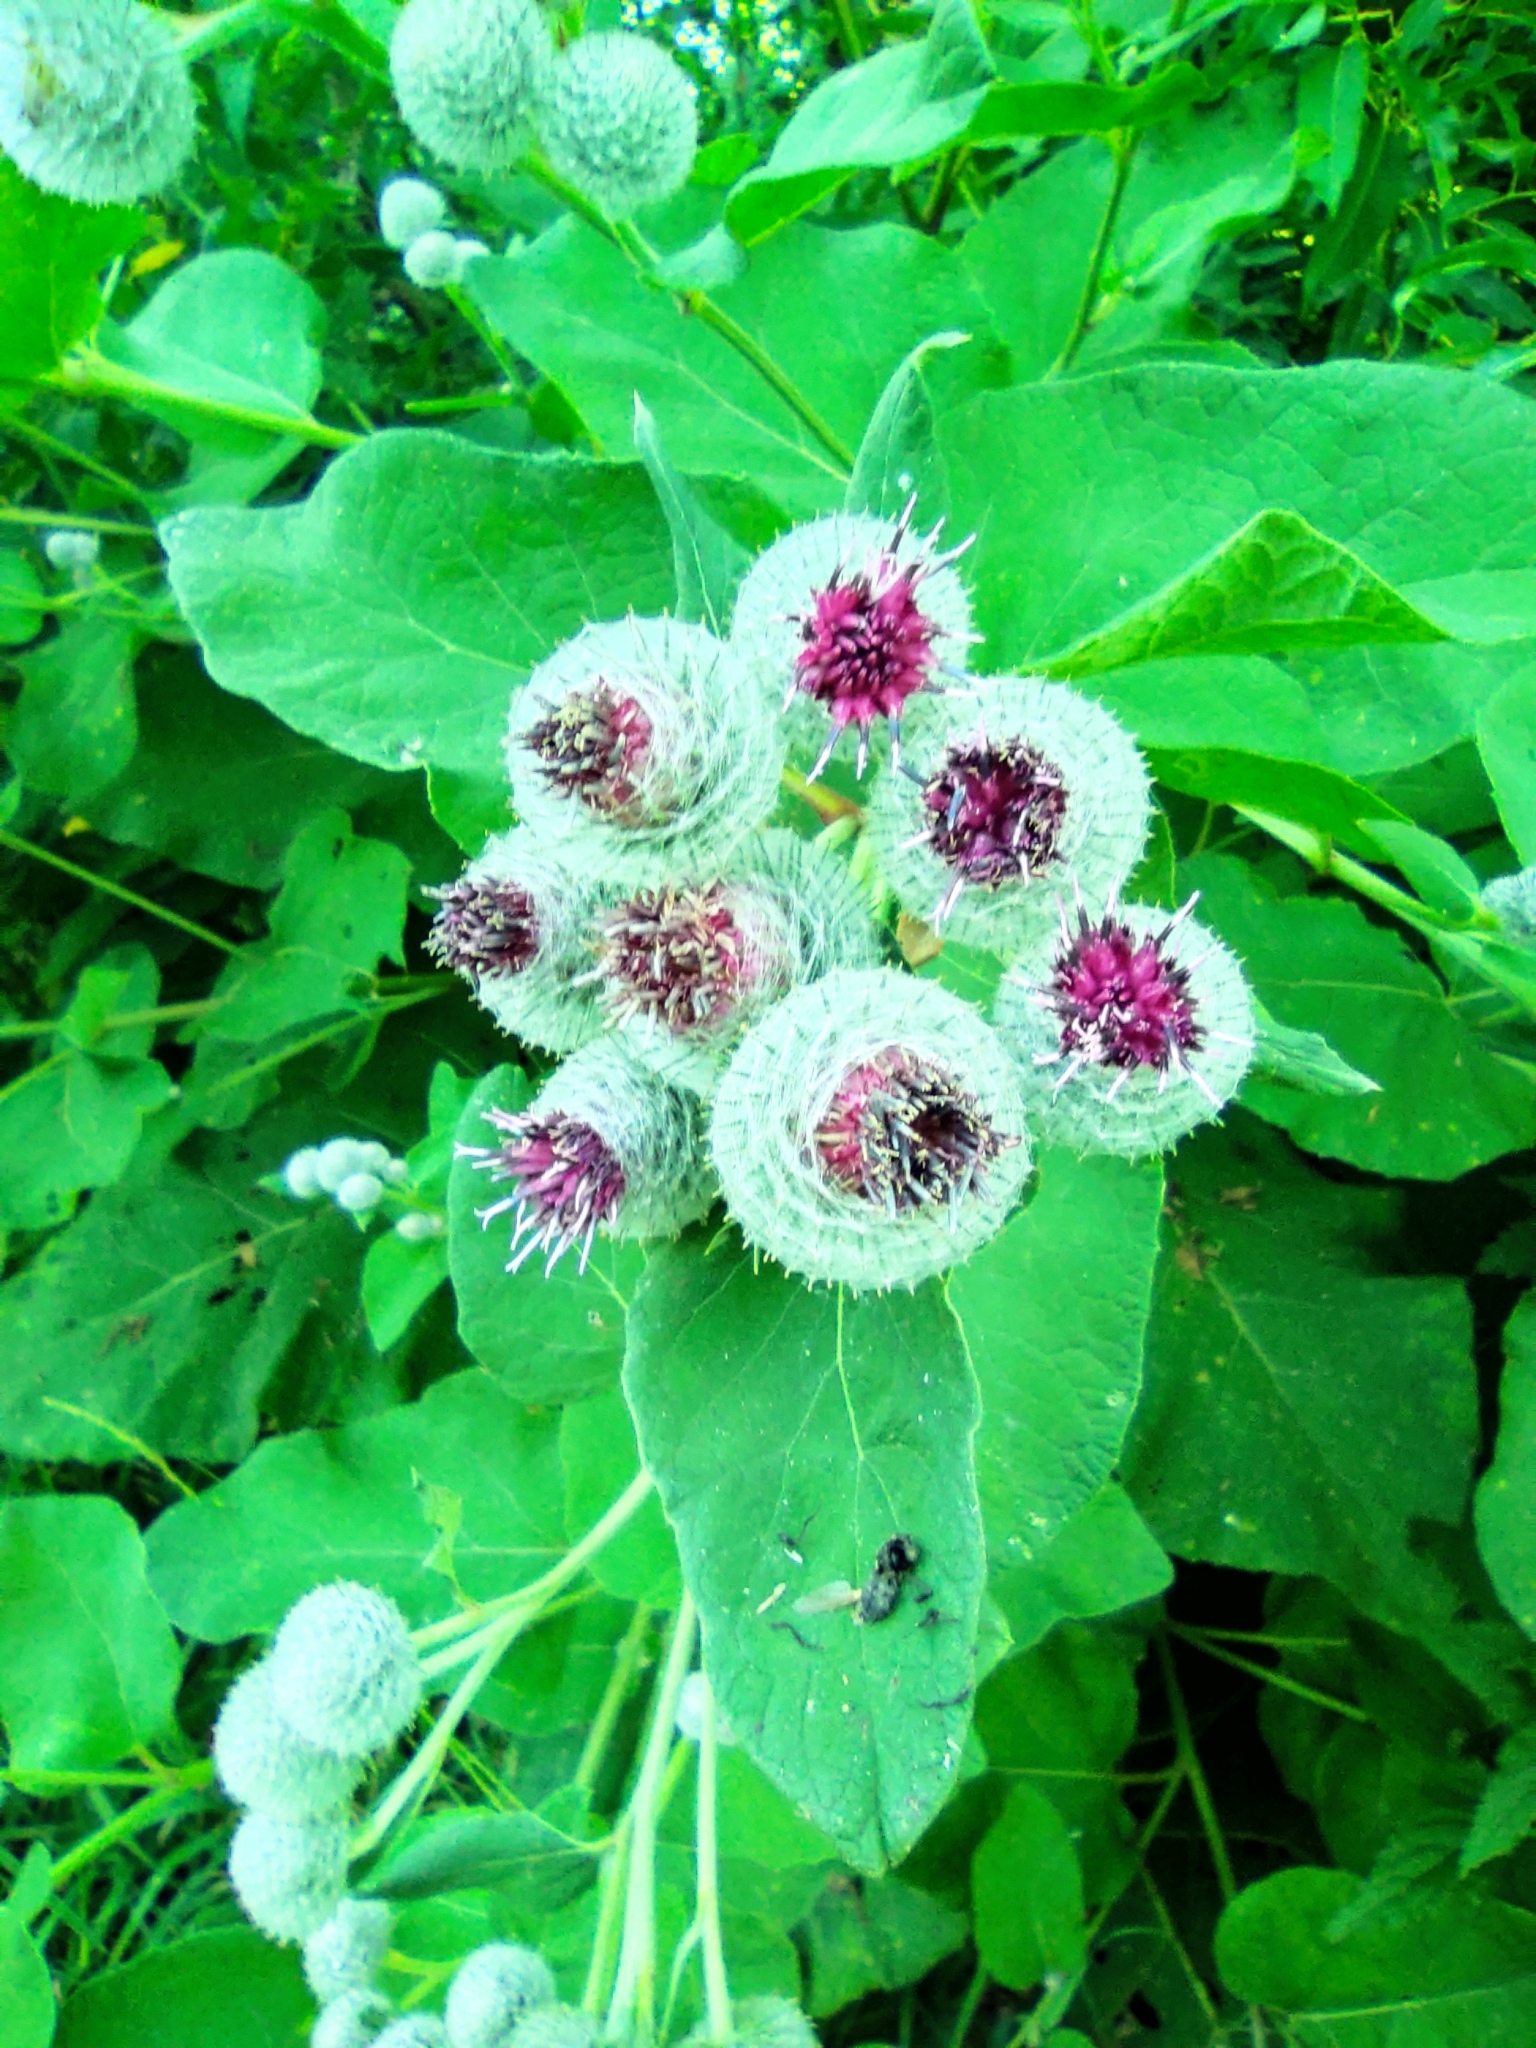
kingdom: Plantae
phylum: Tracheophyta
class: Magnoliopsida
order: Asterales
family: Asteraceae
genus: Arctium
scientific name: Arctium tomentosum
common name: Woolly burdock
